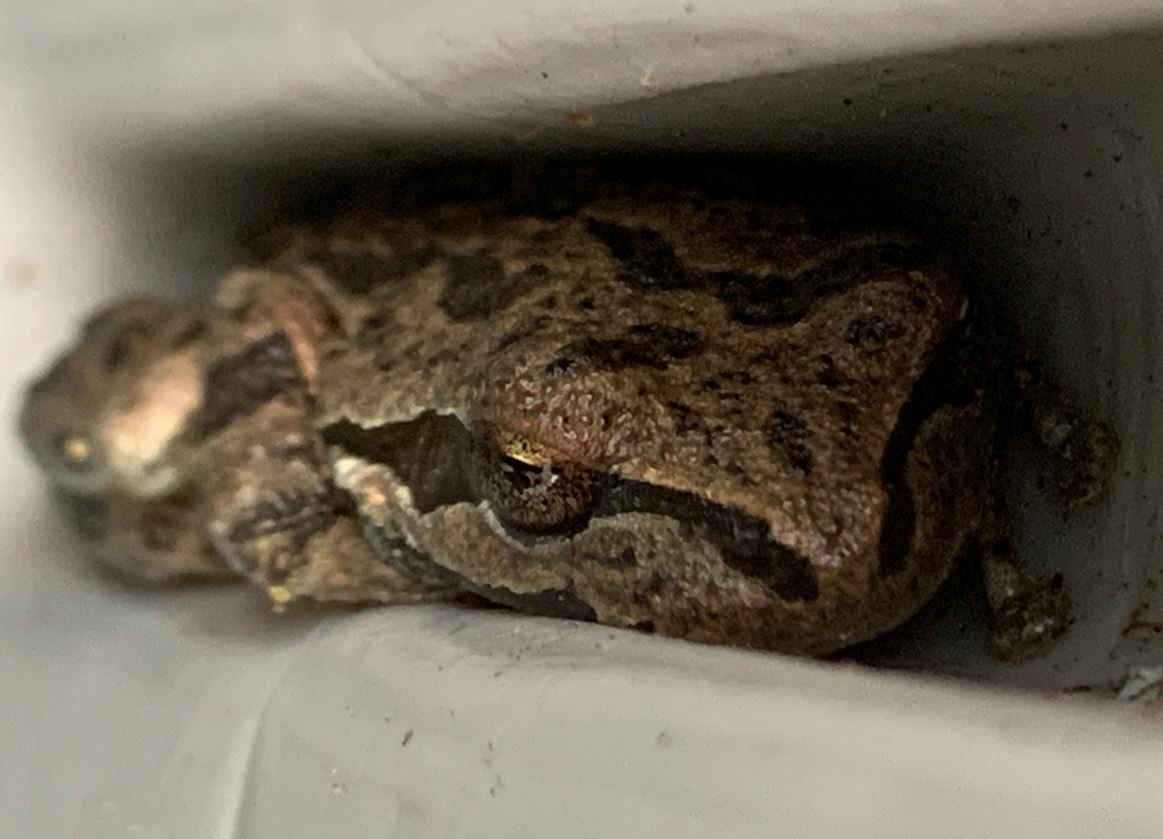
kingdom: Animalia
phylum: Chordata
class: Amphibia
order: Anura
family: Hylidae
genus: Pseudacris
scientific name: Pseudacris regilla
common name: Pacific chorus frog
